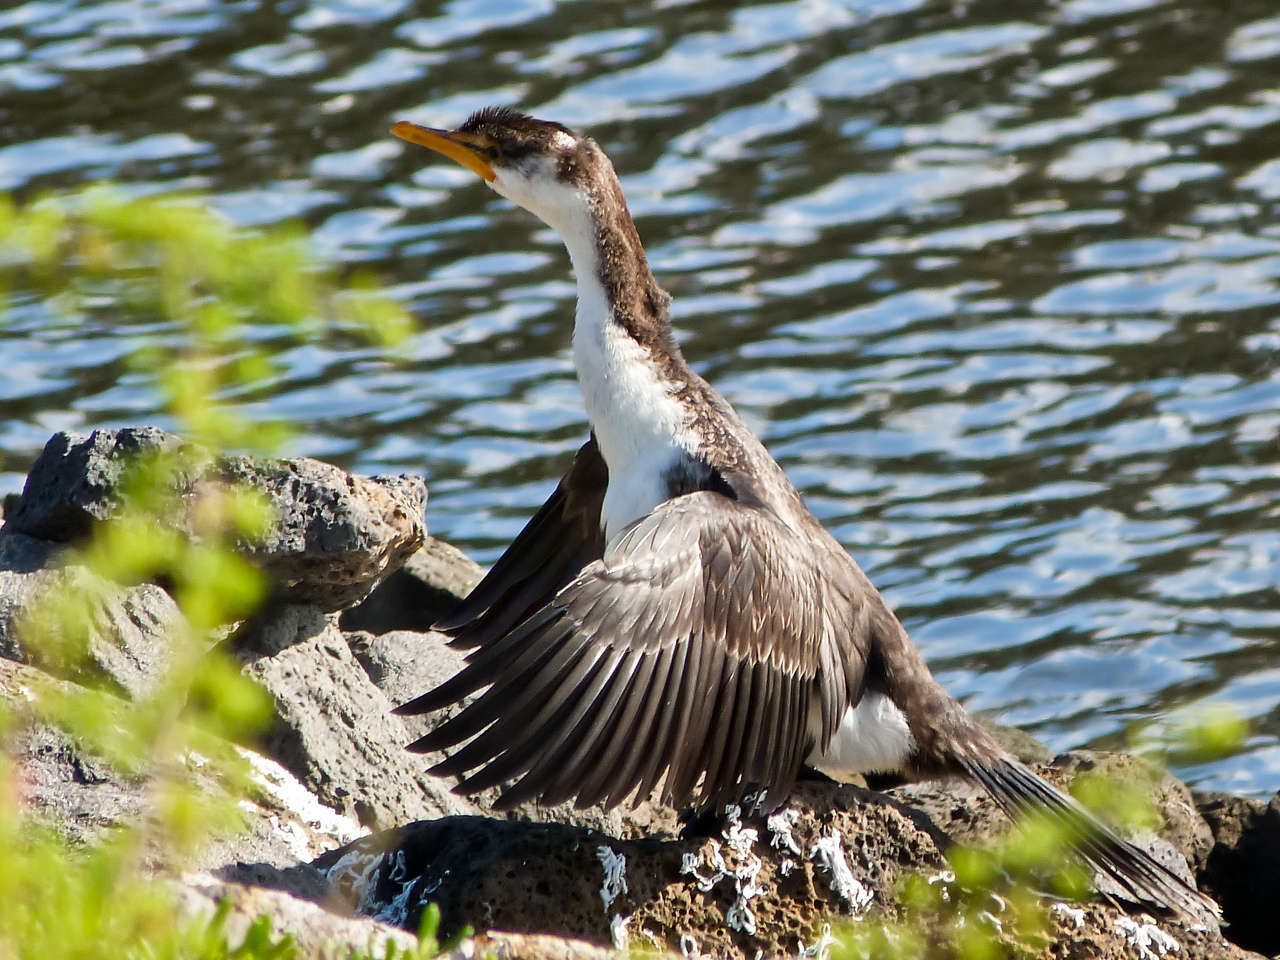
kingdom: Animalia
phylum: Chordata
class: Aves
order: Suliformes
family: Phalacrocoracidae
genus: Microcarbo
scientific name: Microcarbo melanoleucos
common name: Little pied cormorant
